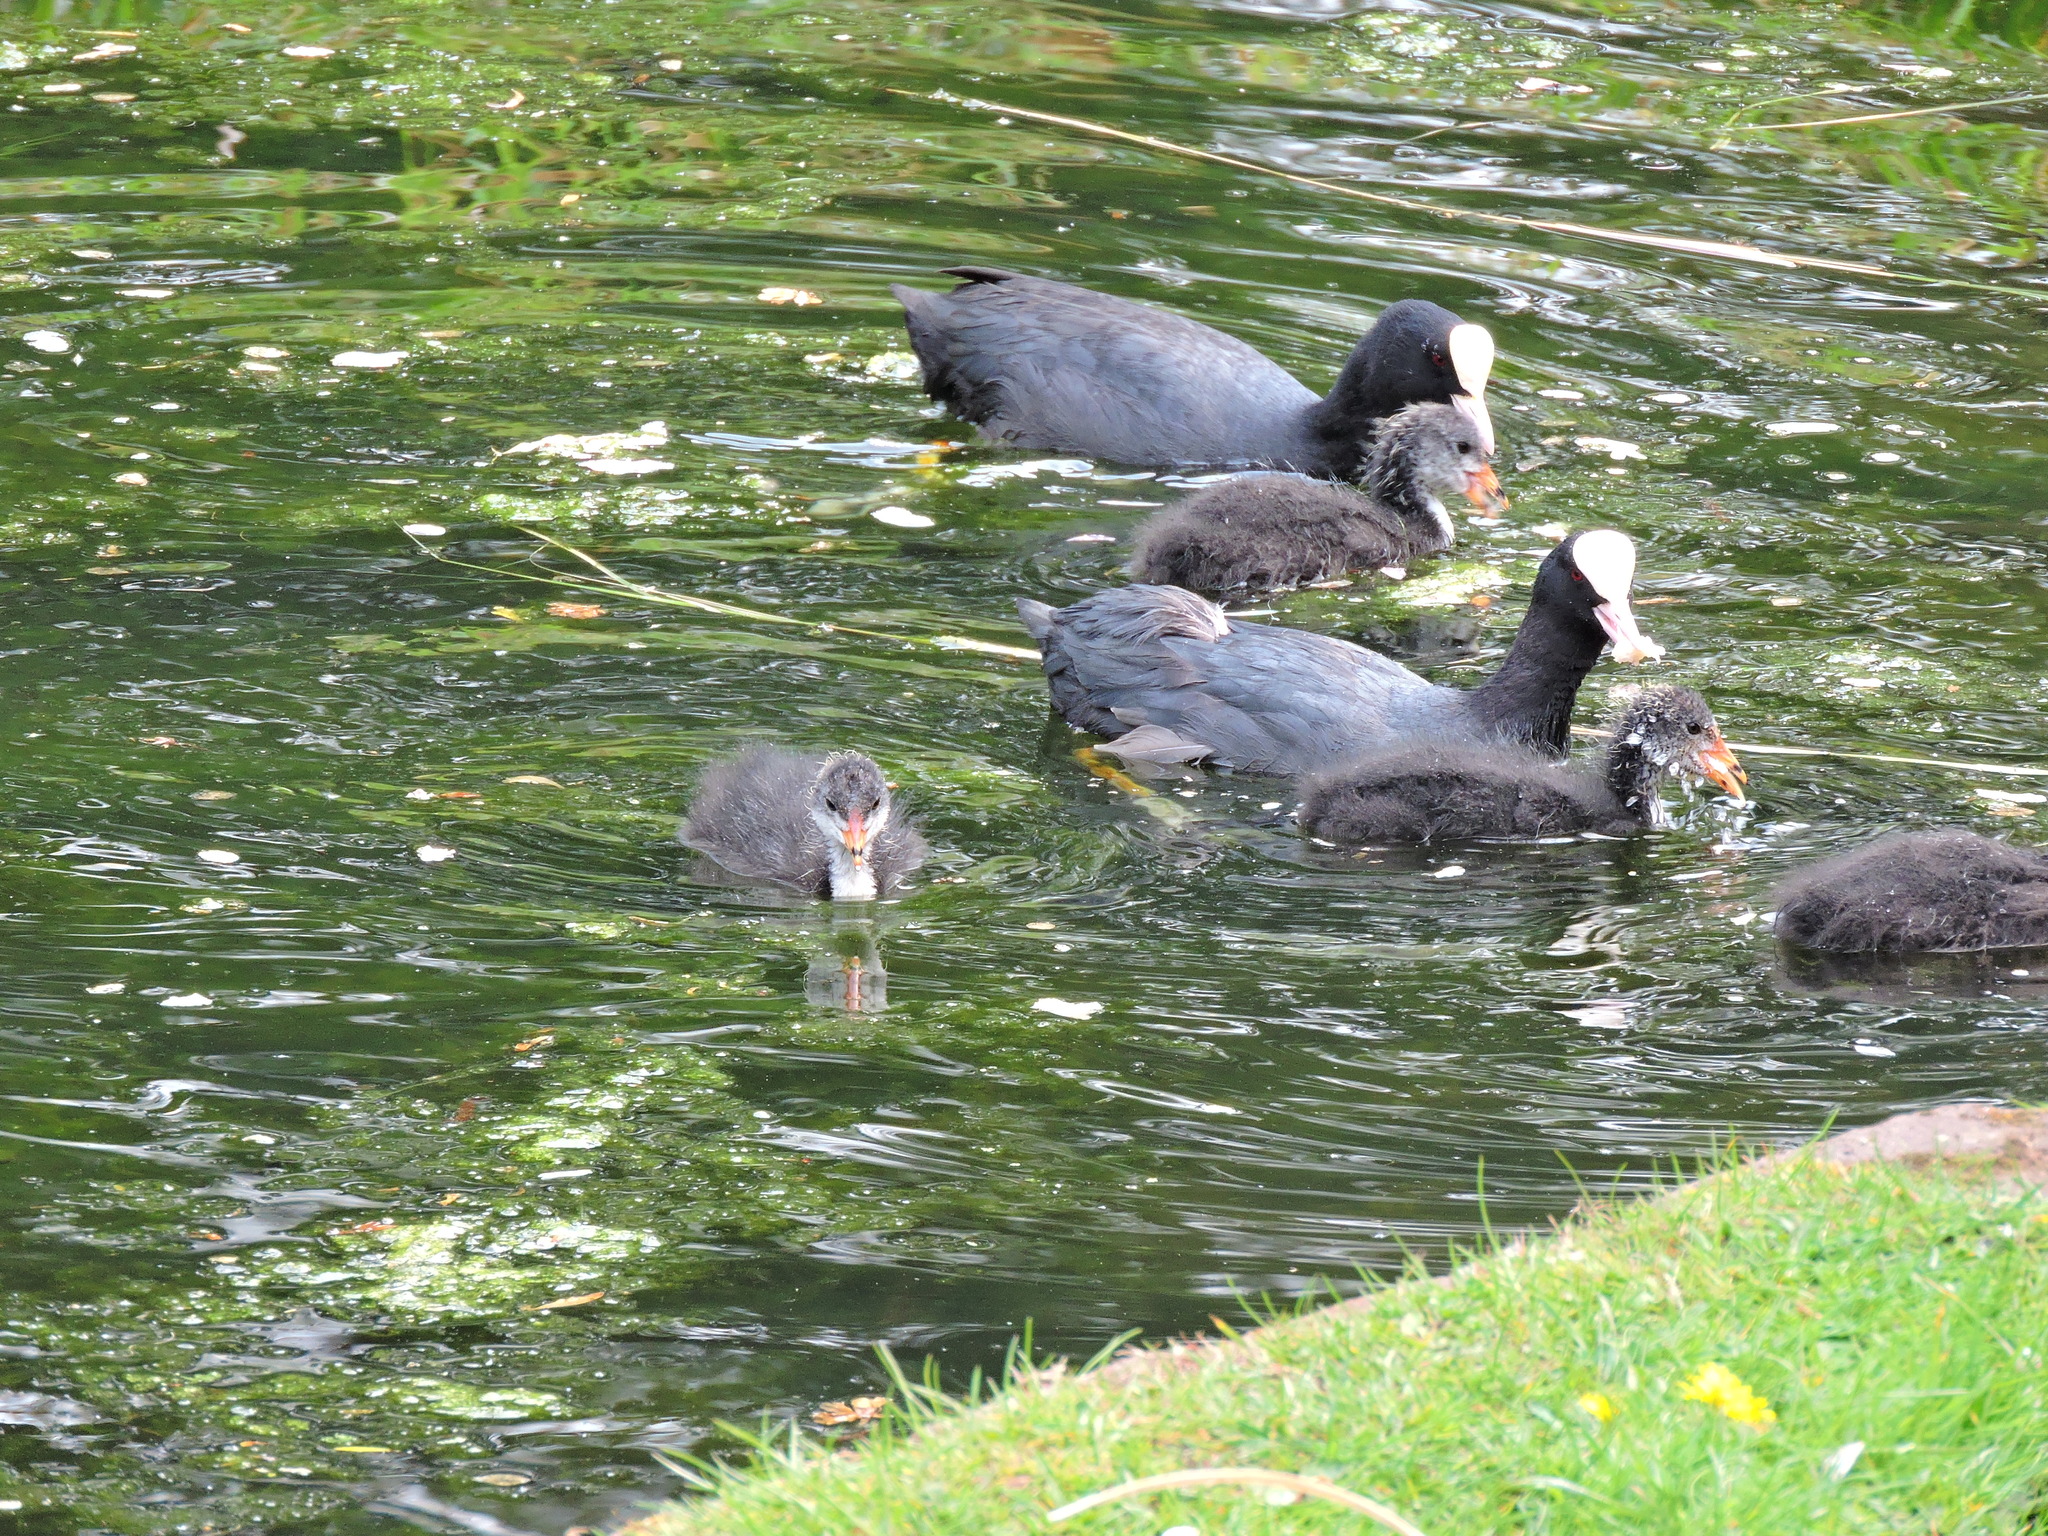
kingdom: Animalia
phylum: Chordata
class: Aves
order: Gruiformes
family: Rallidae
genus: Fulica
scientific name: Fulica atra
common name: Eurasian coot
